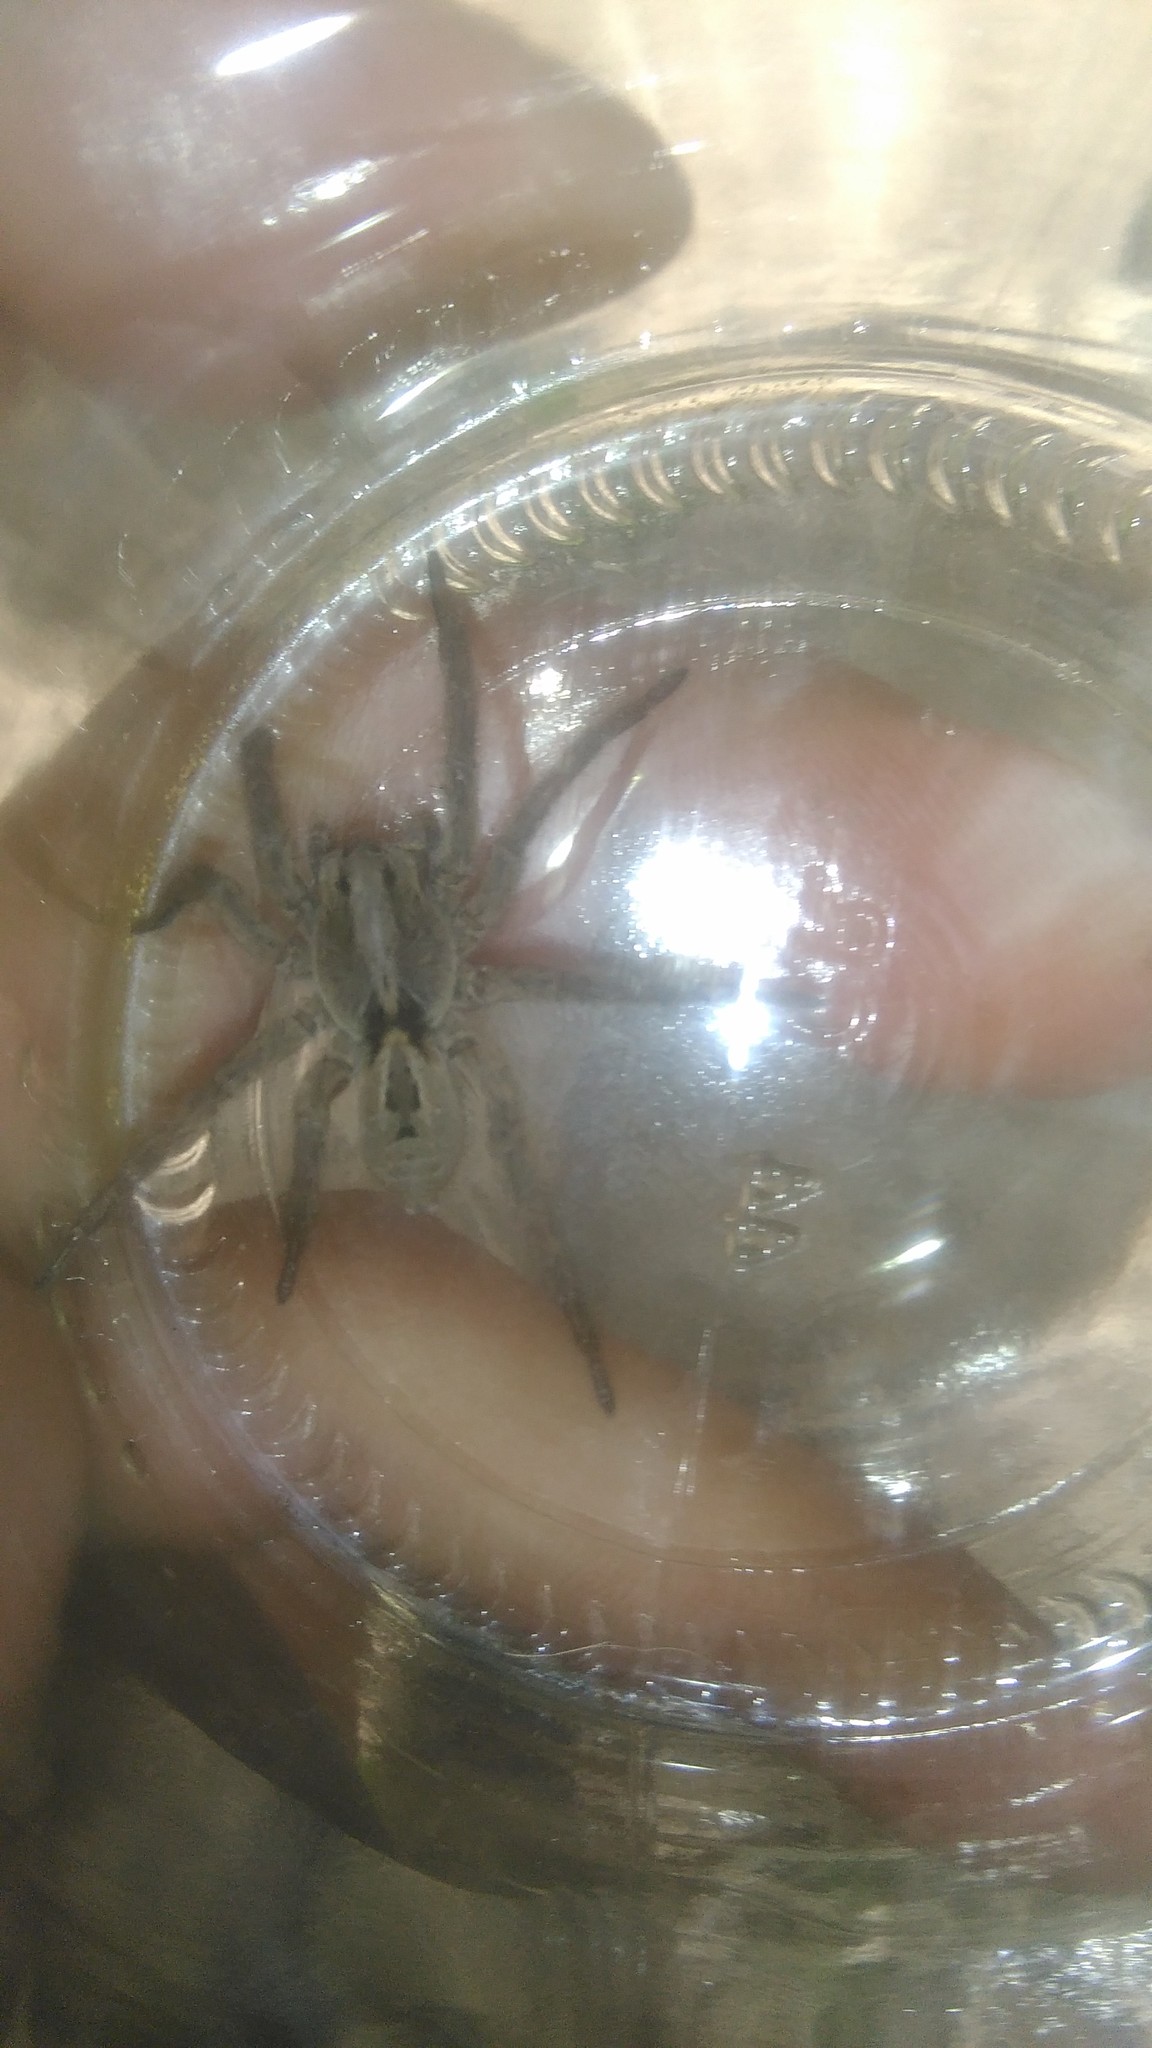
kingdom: Animalia
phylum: Arthropoda
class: Arachnida
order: Araneae
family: Lycosidae
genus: Lycosa
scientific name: Lycosa erythrognatha
